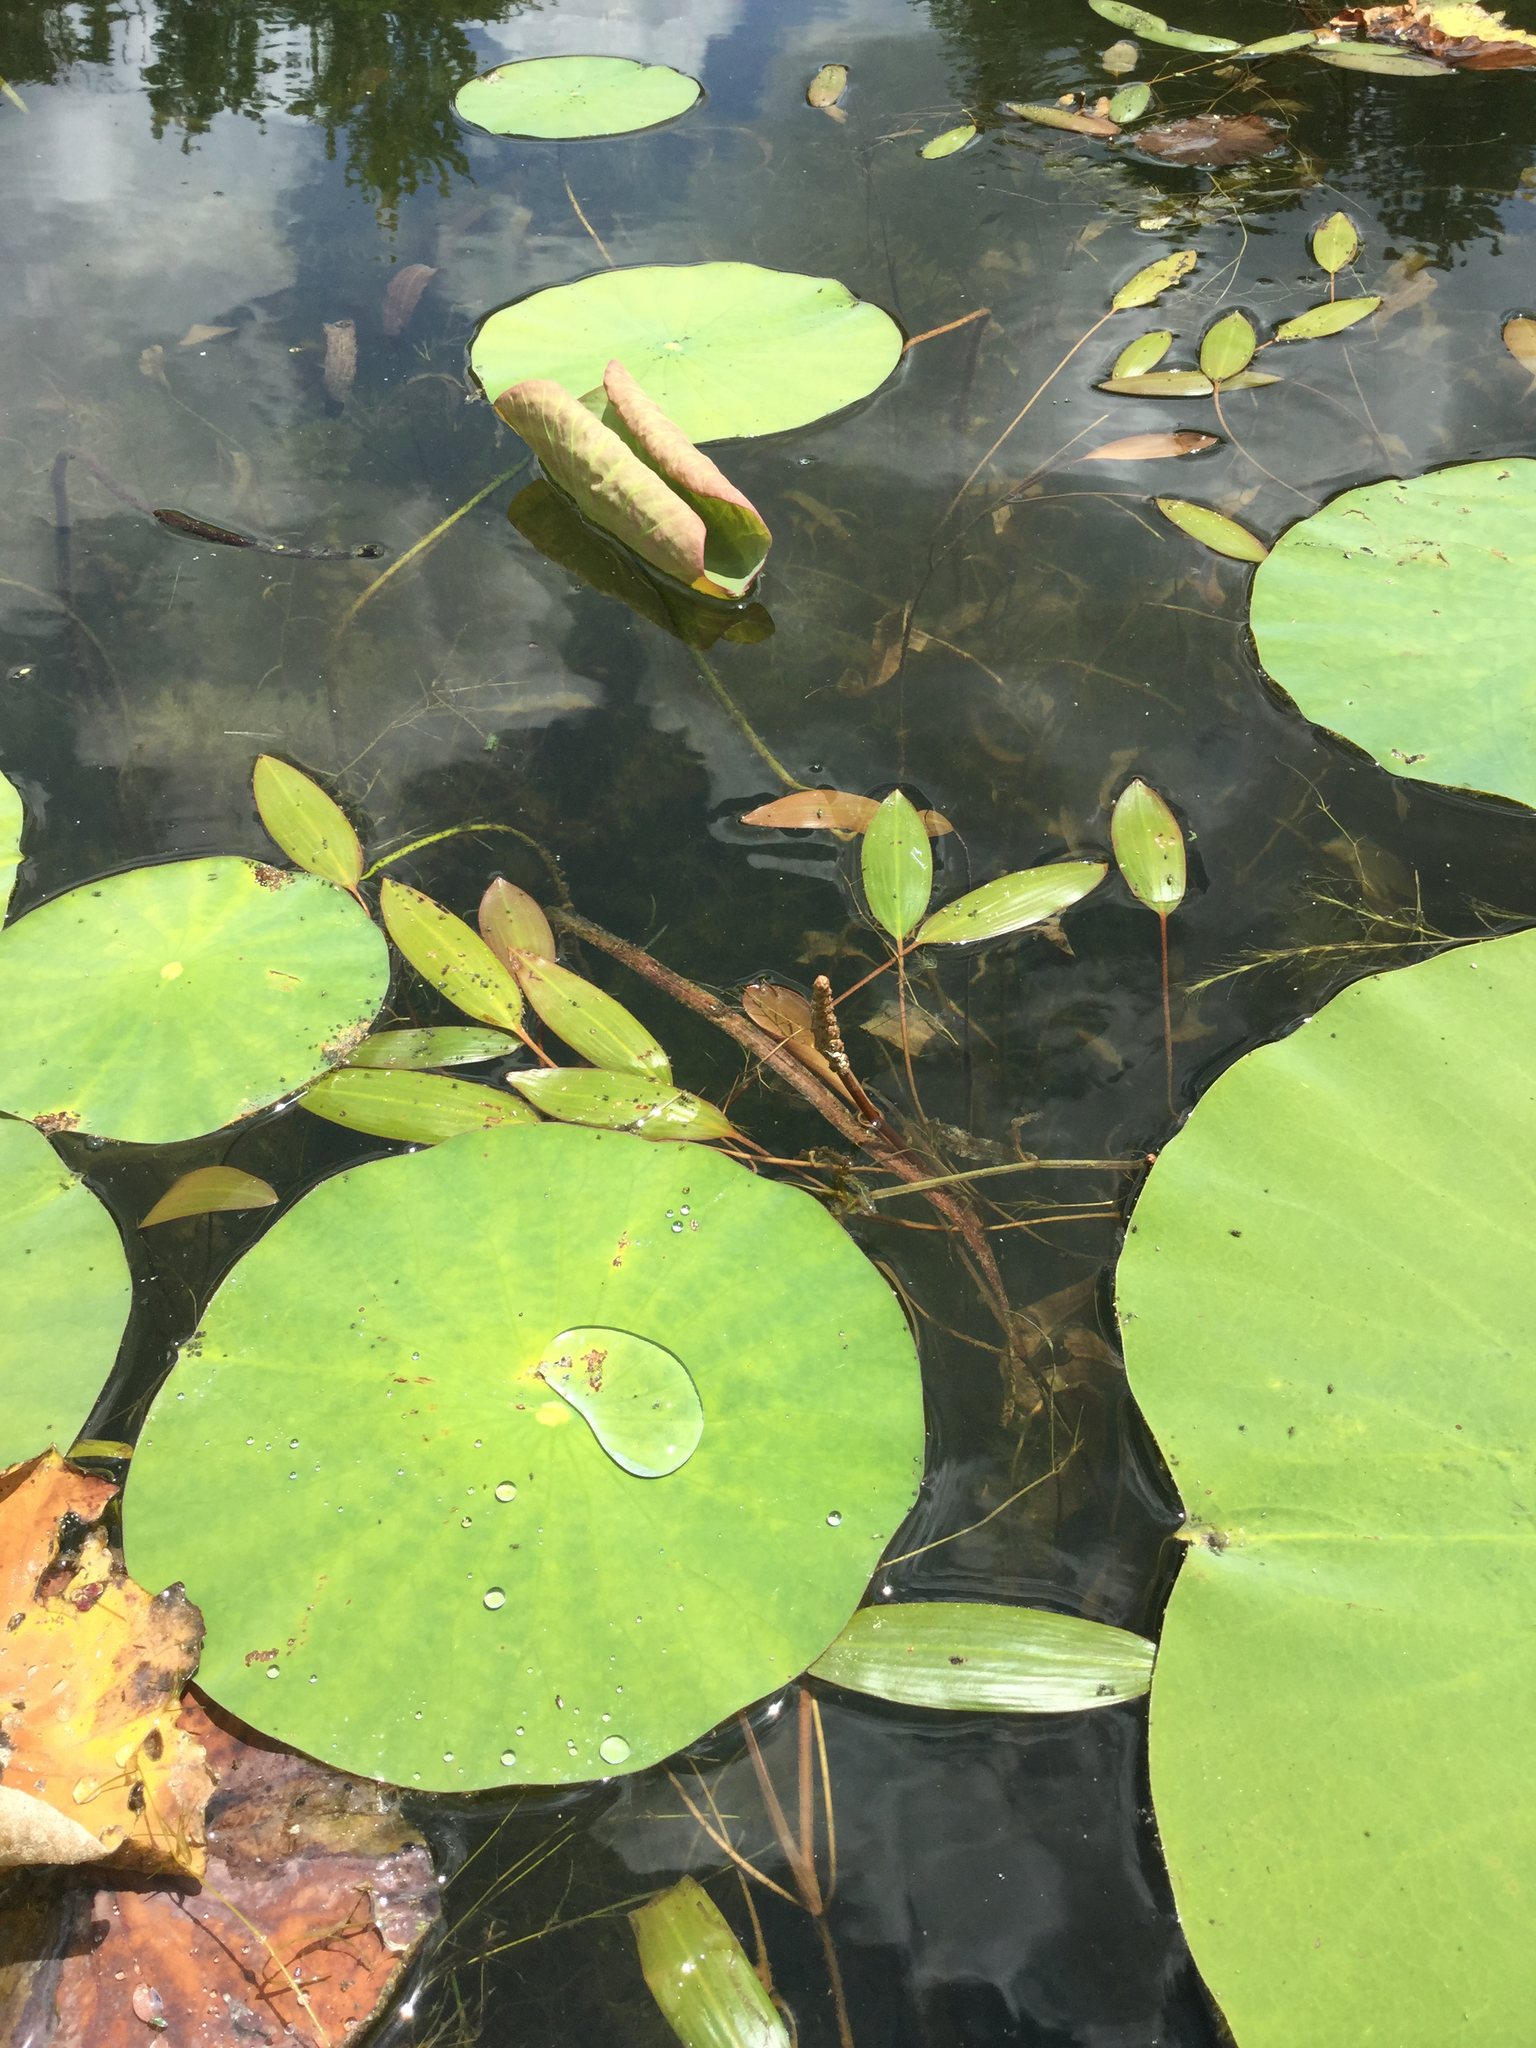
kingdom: Plantae
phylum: Tracheophyta
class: Liliopsida
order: Alismatales
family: Potamogetonaceae
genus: Potamogeton
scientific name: Potamogeton nodosus
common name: Loddon pondweed
